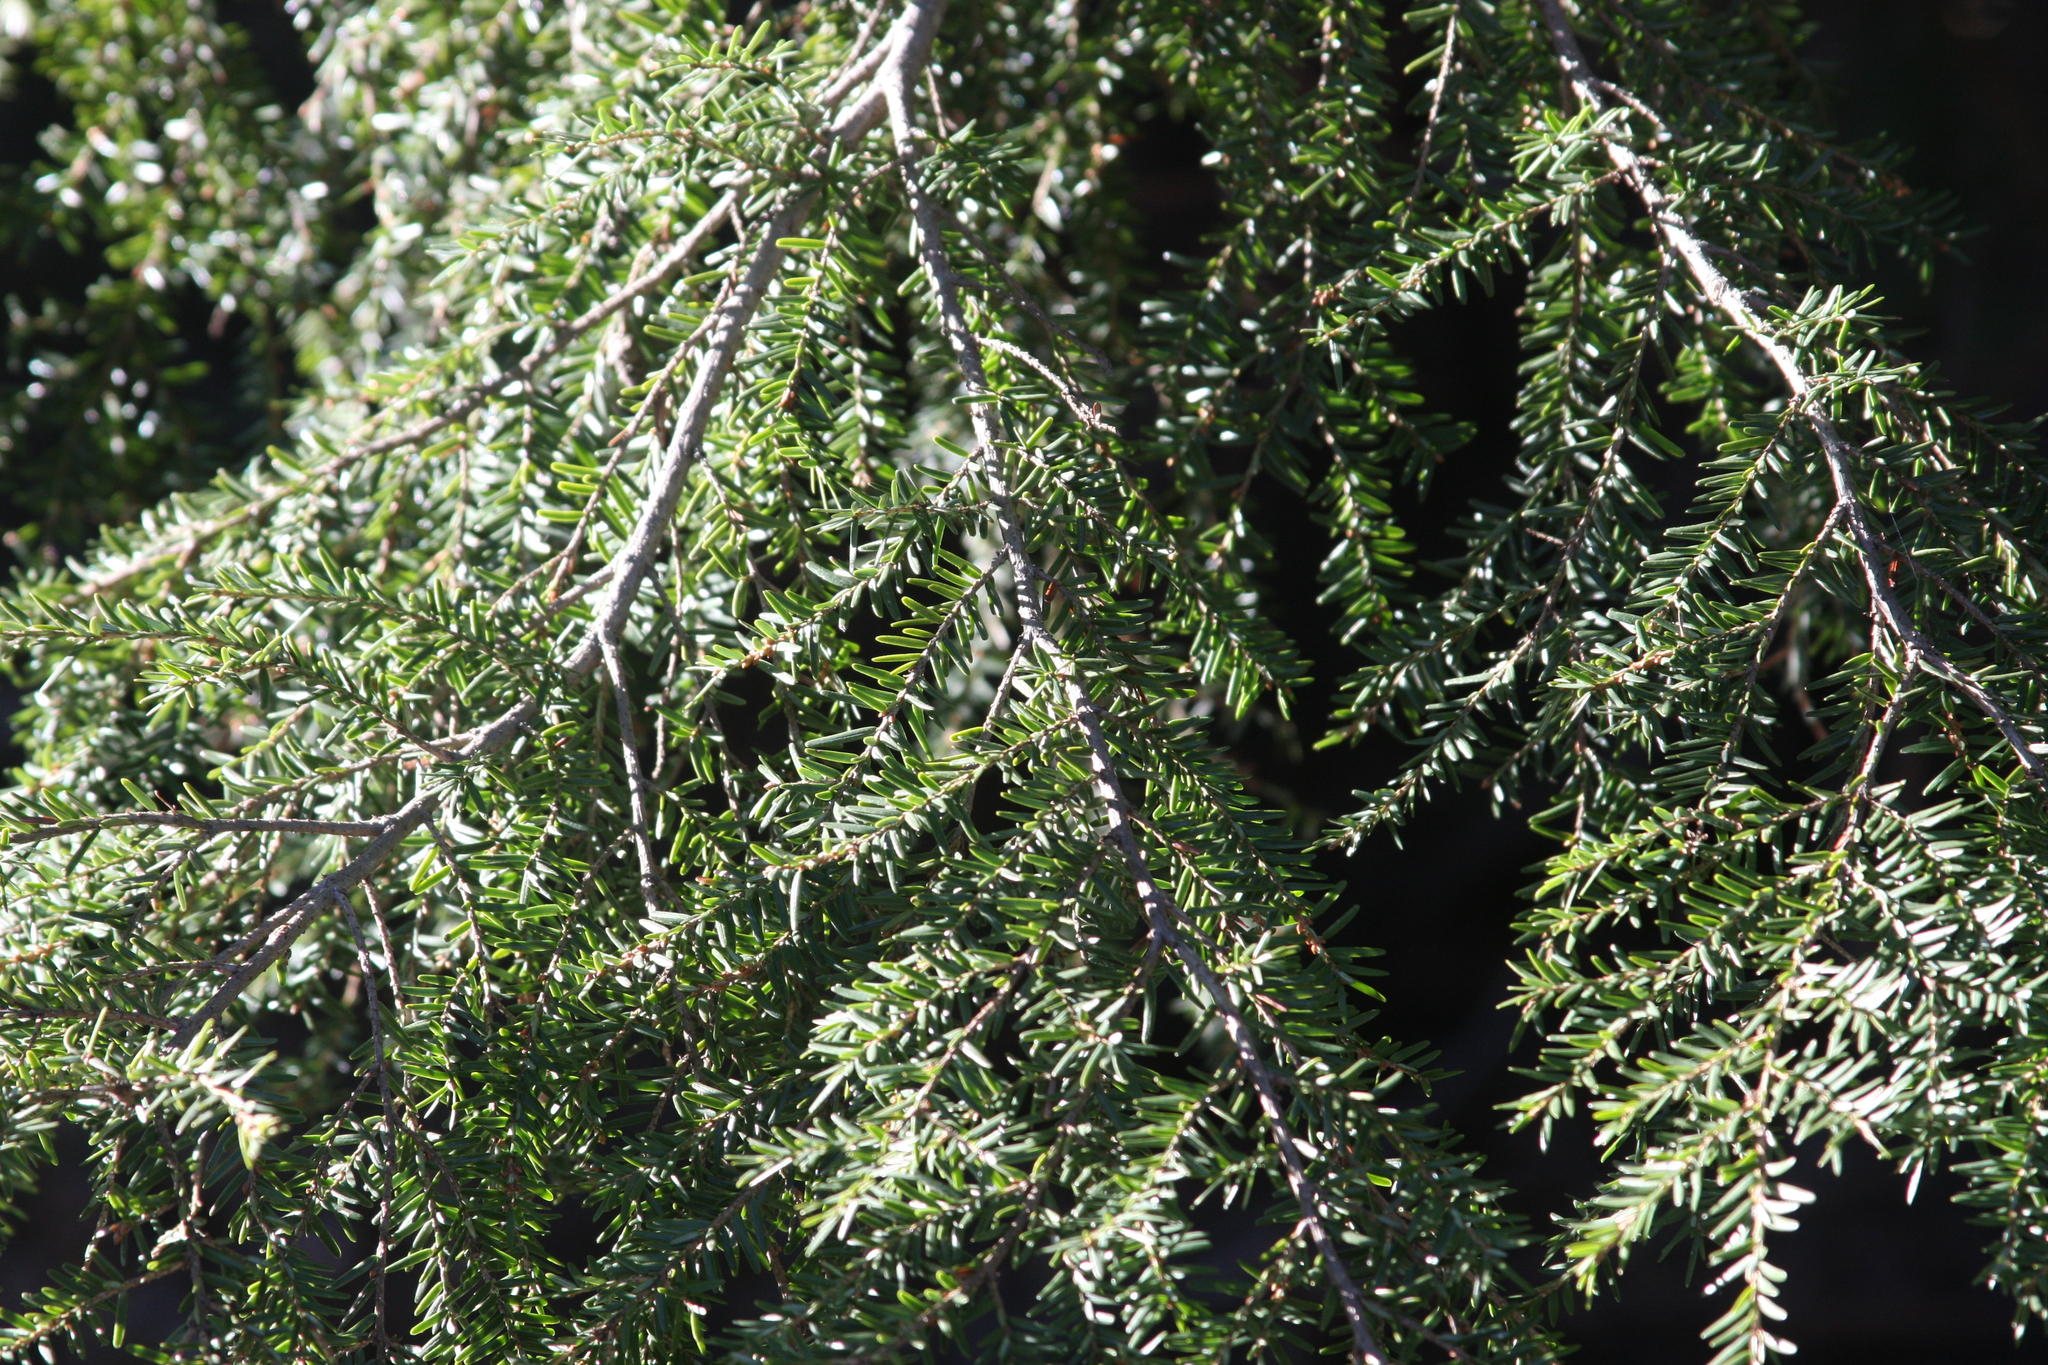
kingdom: Plantae
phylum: Tracheophyta
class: Pinopsida
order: Pinales
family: Pinaceae
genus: Tsuga
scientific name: Tsuga canadensis
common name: Eastern hemlock
